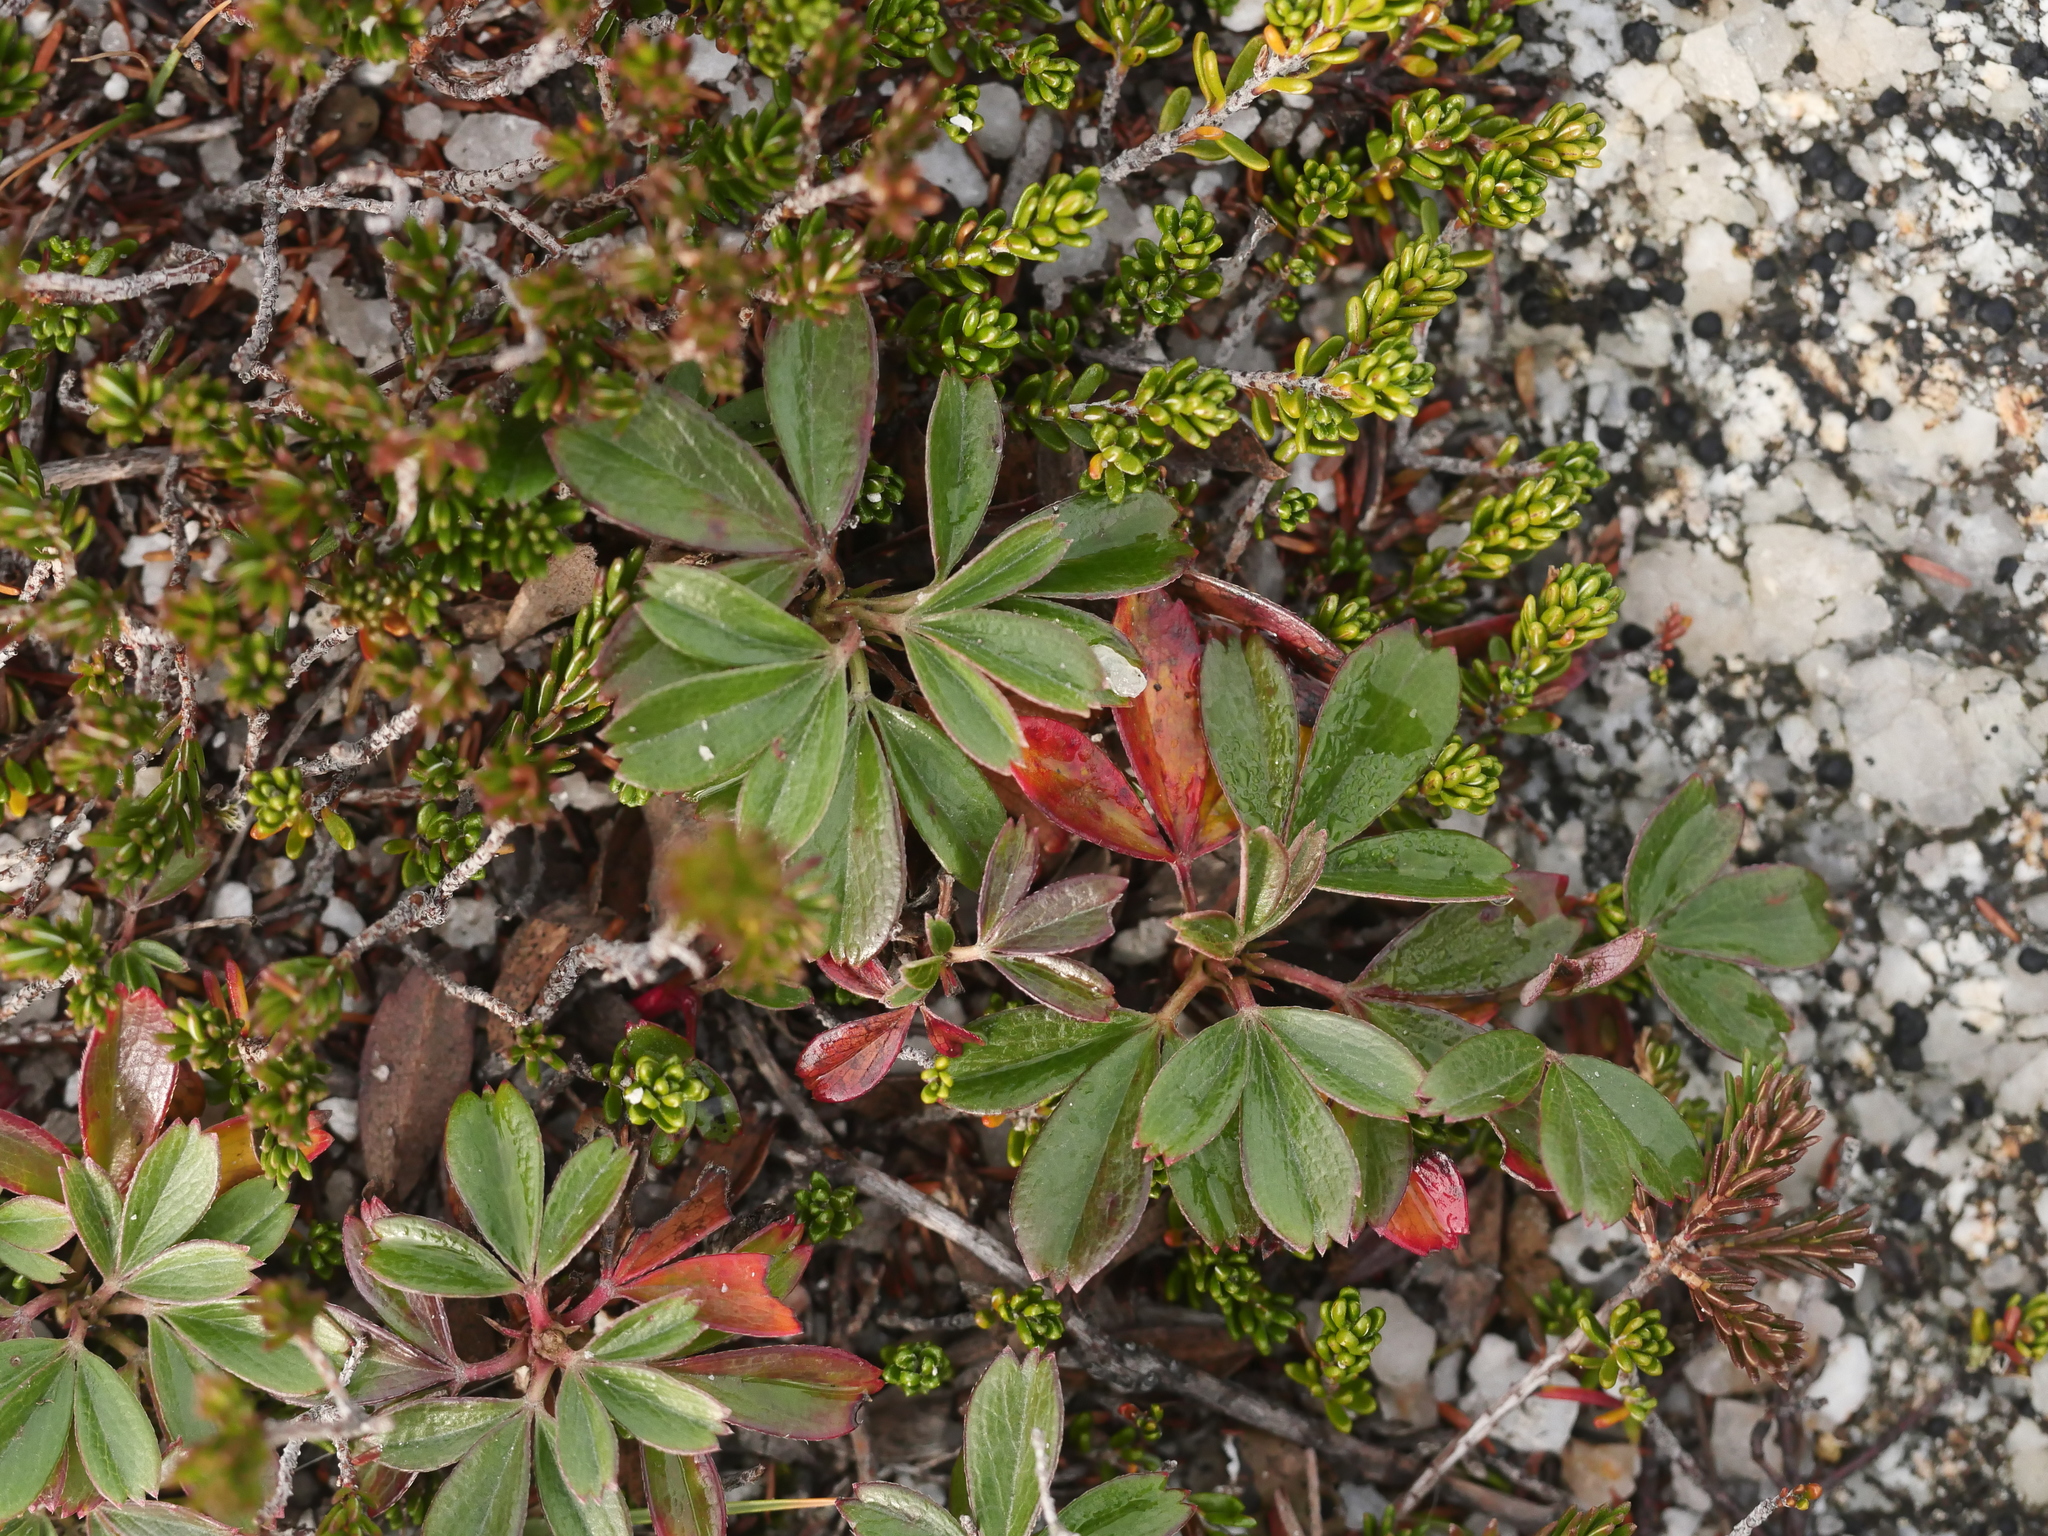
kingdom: Plantae
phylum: Tracheophyta
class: Magnoliopsida
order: Rosales
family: Rosaceae
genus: Sibbaldia
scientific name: Sibbaldia tridentata
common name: Three-toothed cinquefoil
